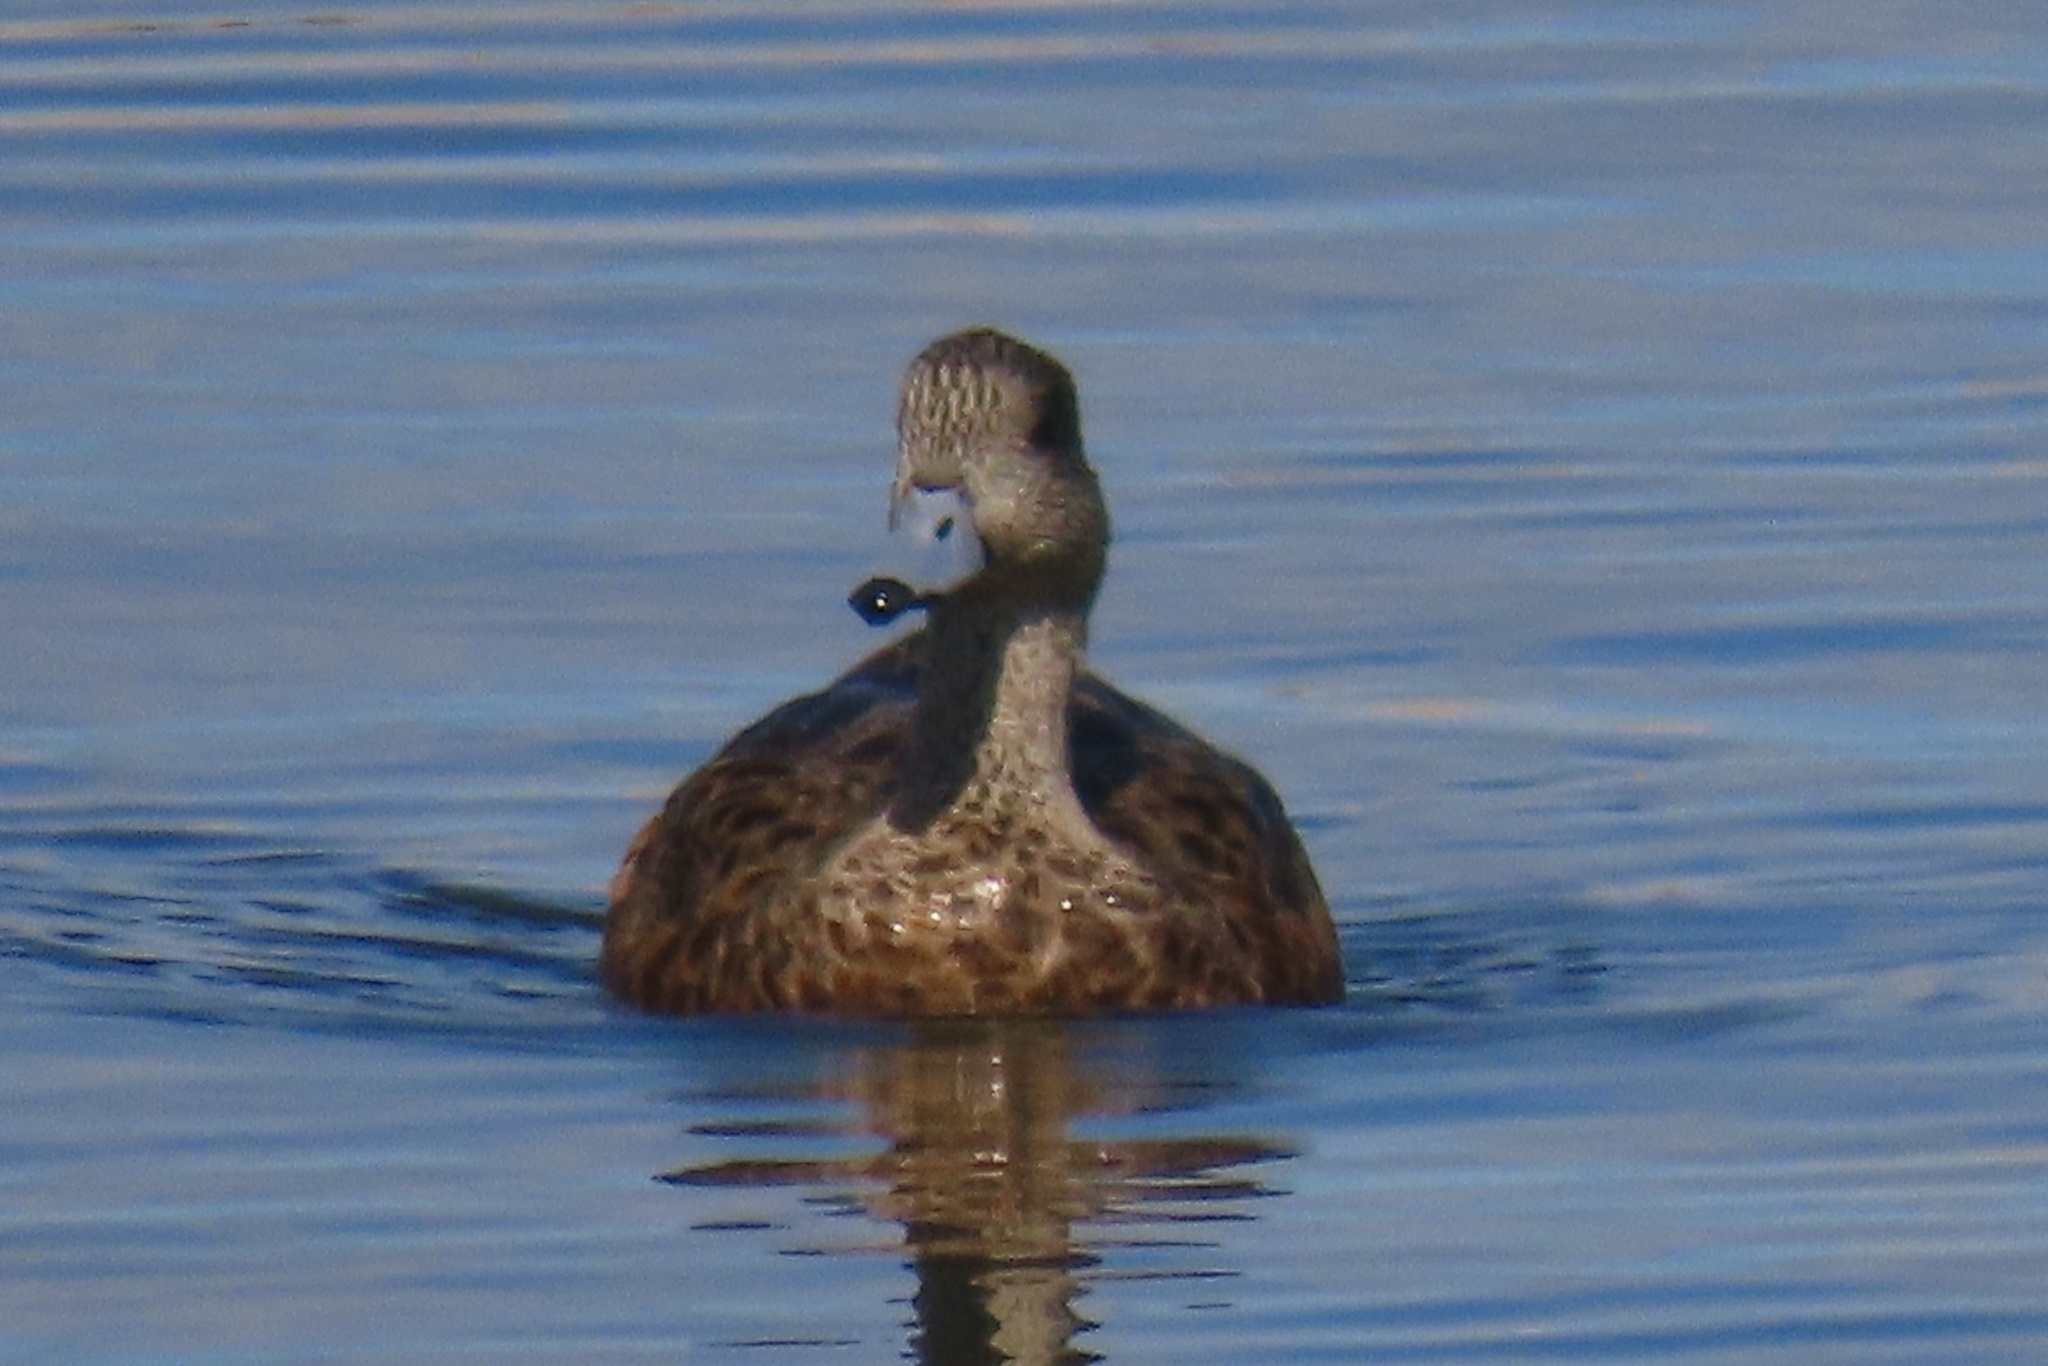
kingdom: Animalia
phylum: Chordata
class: Aves
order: Anseriformes
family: Anatidae
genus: Mareca
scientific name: Mareca americana
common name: American wigeon
